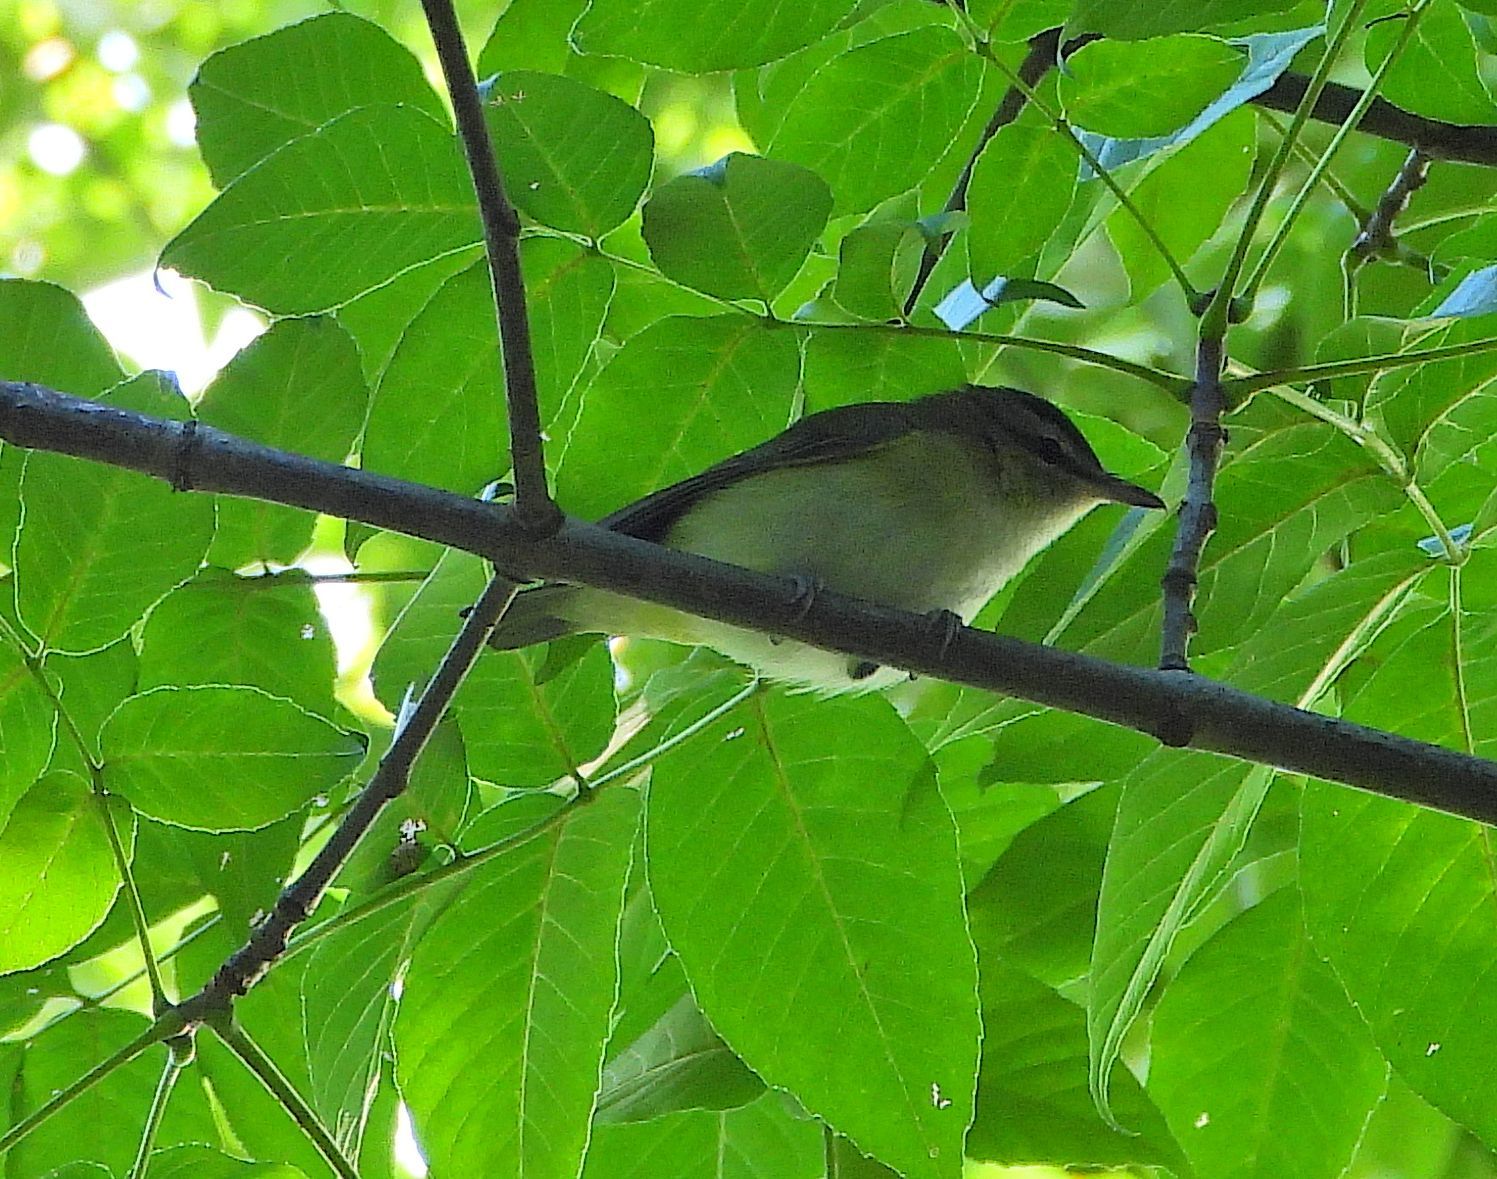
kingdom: Animalia
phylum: Chordata
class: Aves
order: Passeriformes
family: Vireonidae
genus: Vireo
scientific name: Vireo olivaceus
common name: Red-eyed vireo
